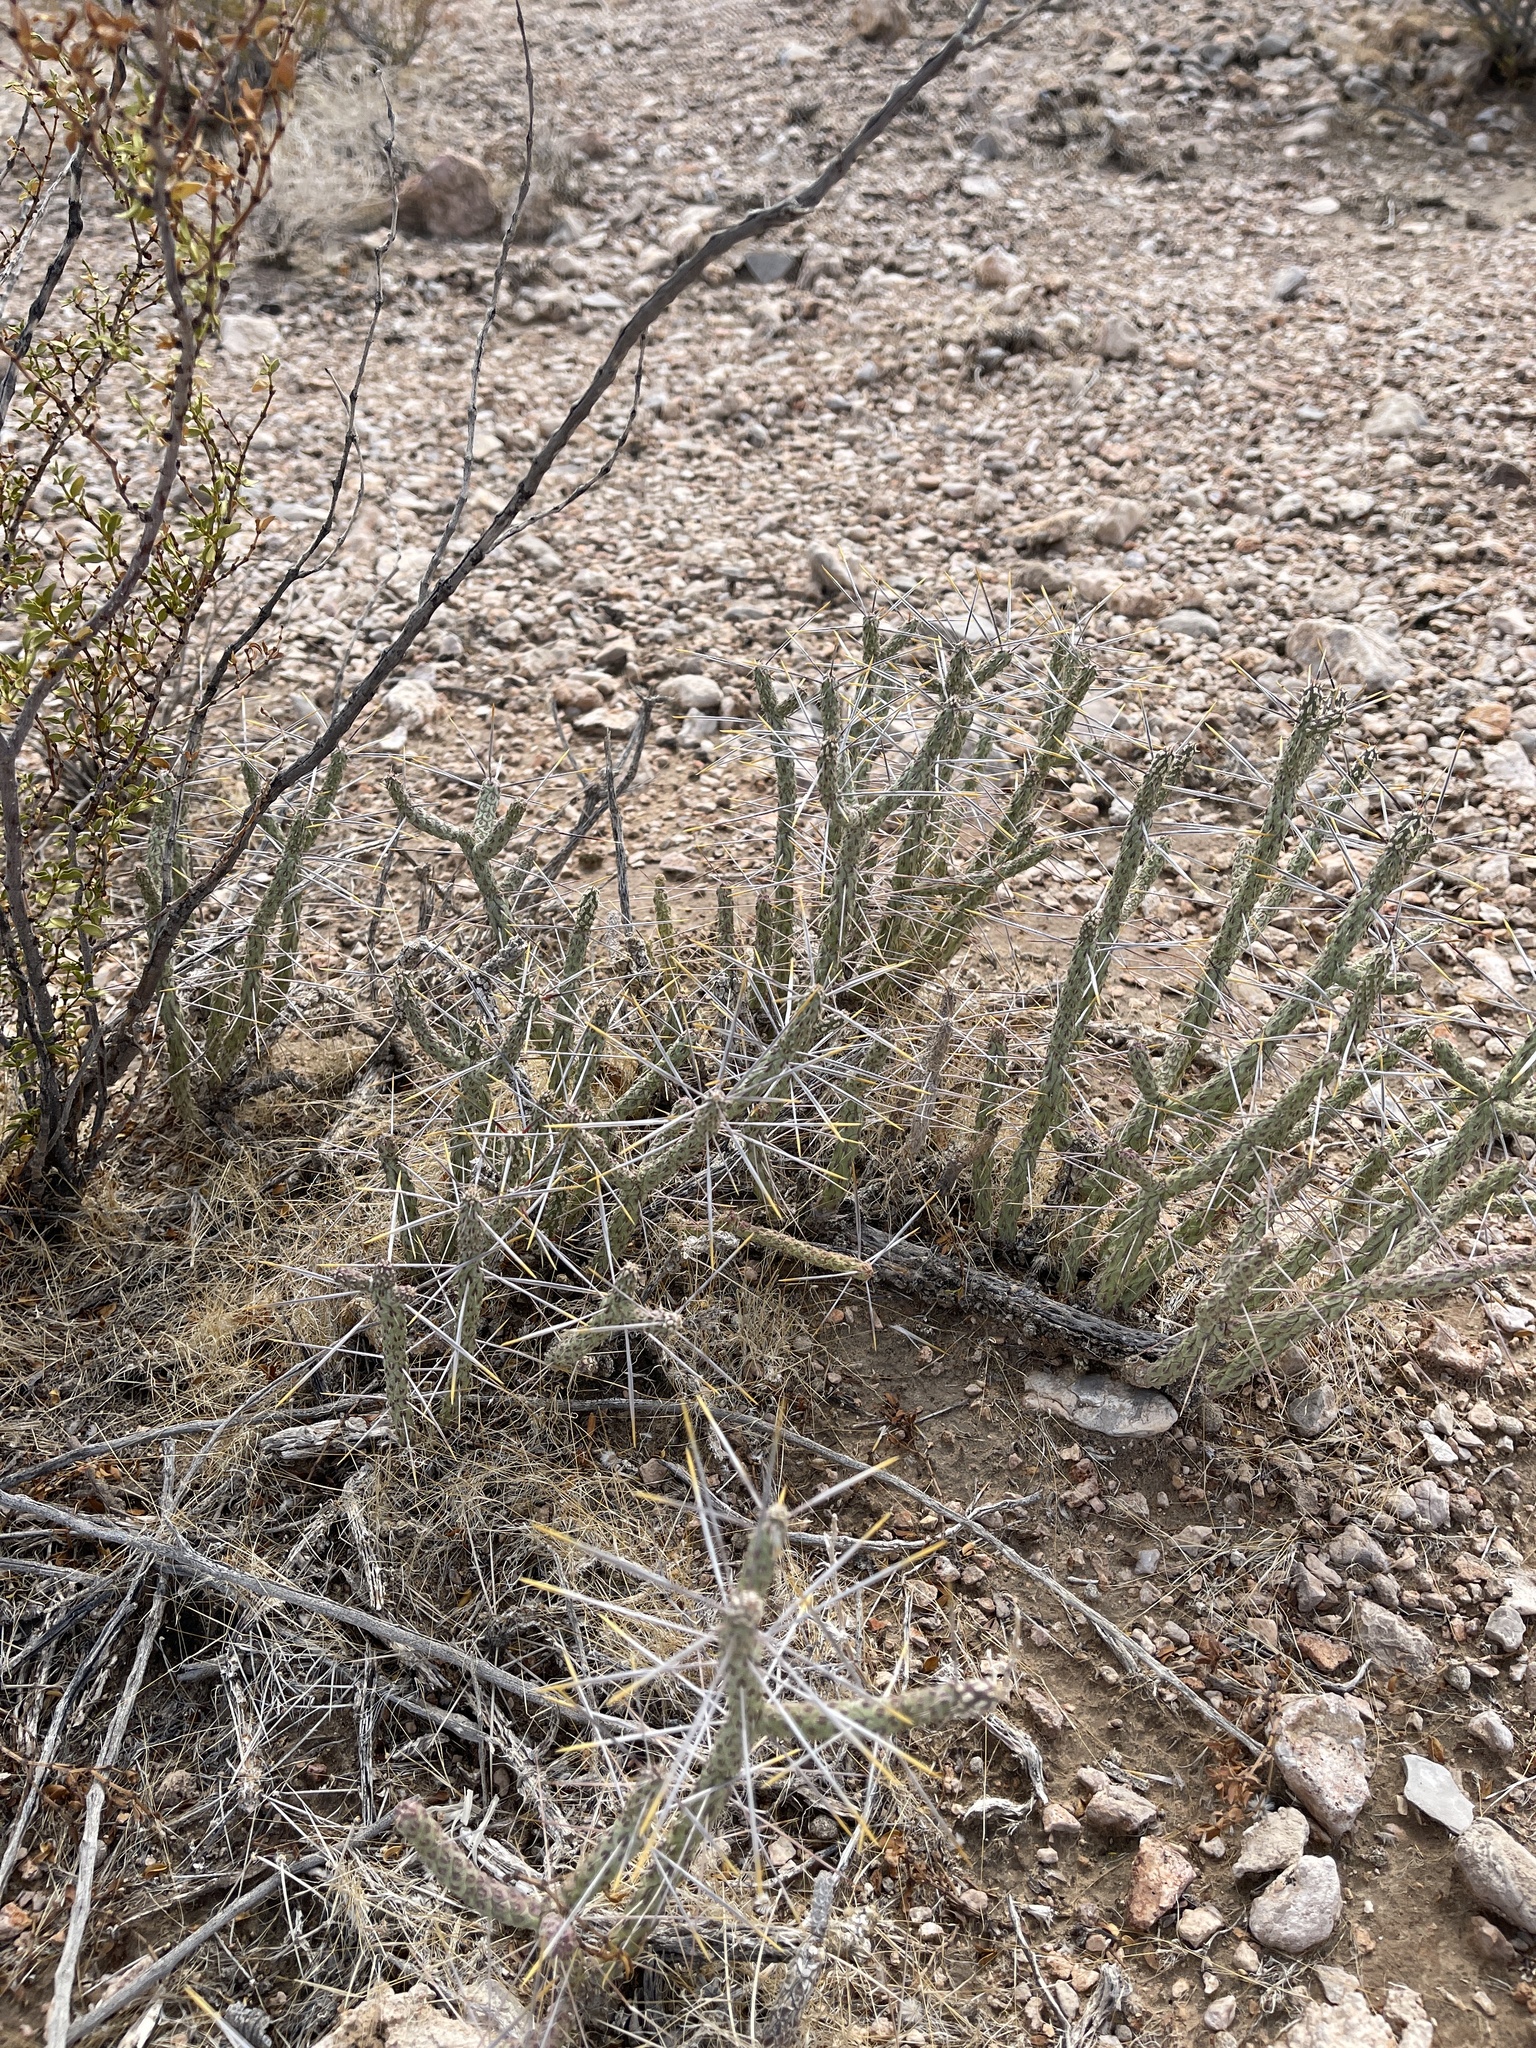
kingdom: Plantae
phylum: Tracheophyta
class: Magnoliopsida
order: Caryophyllales
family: Cactaceae
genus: Cylindropuntia
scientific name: Cylindropuntia ramosissima
